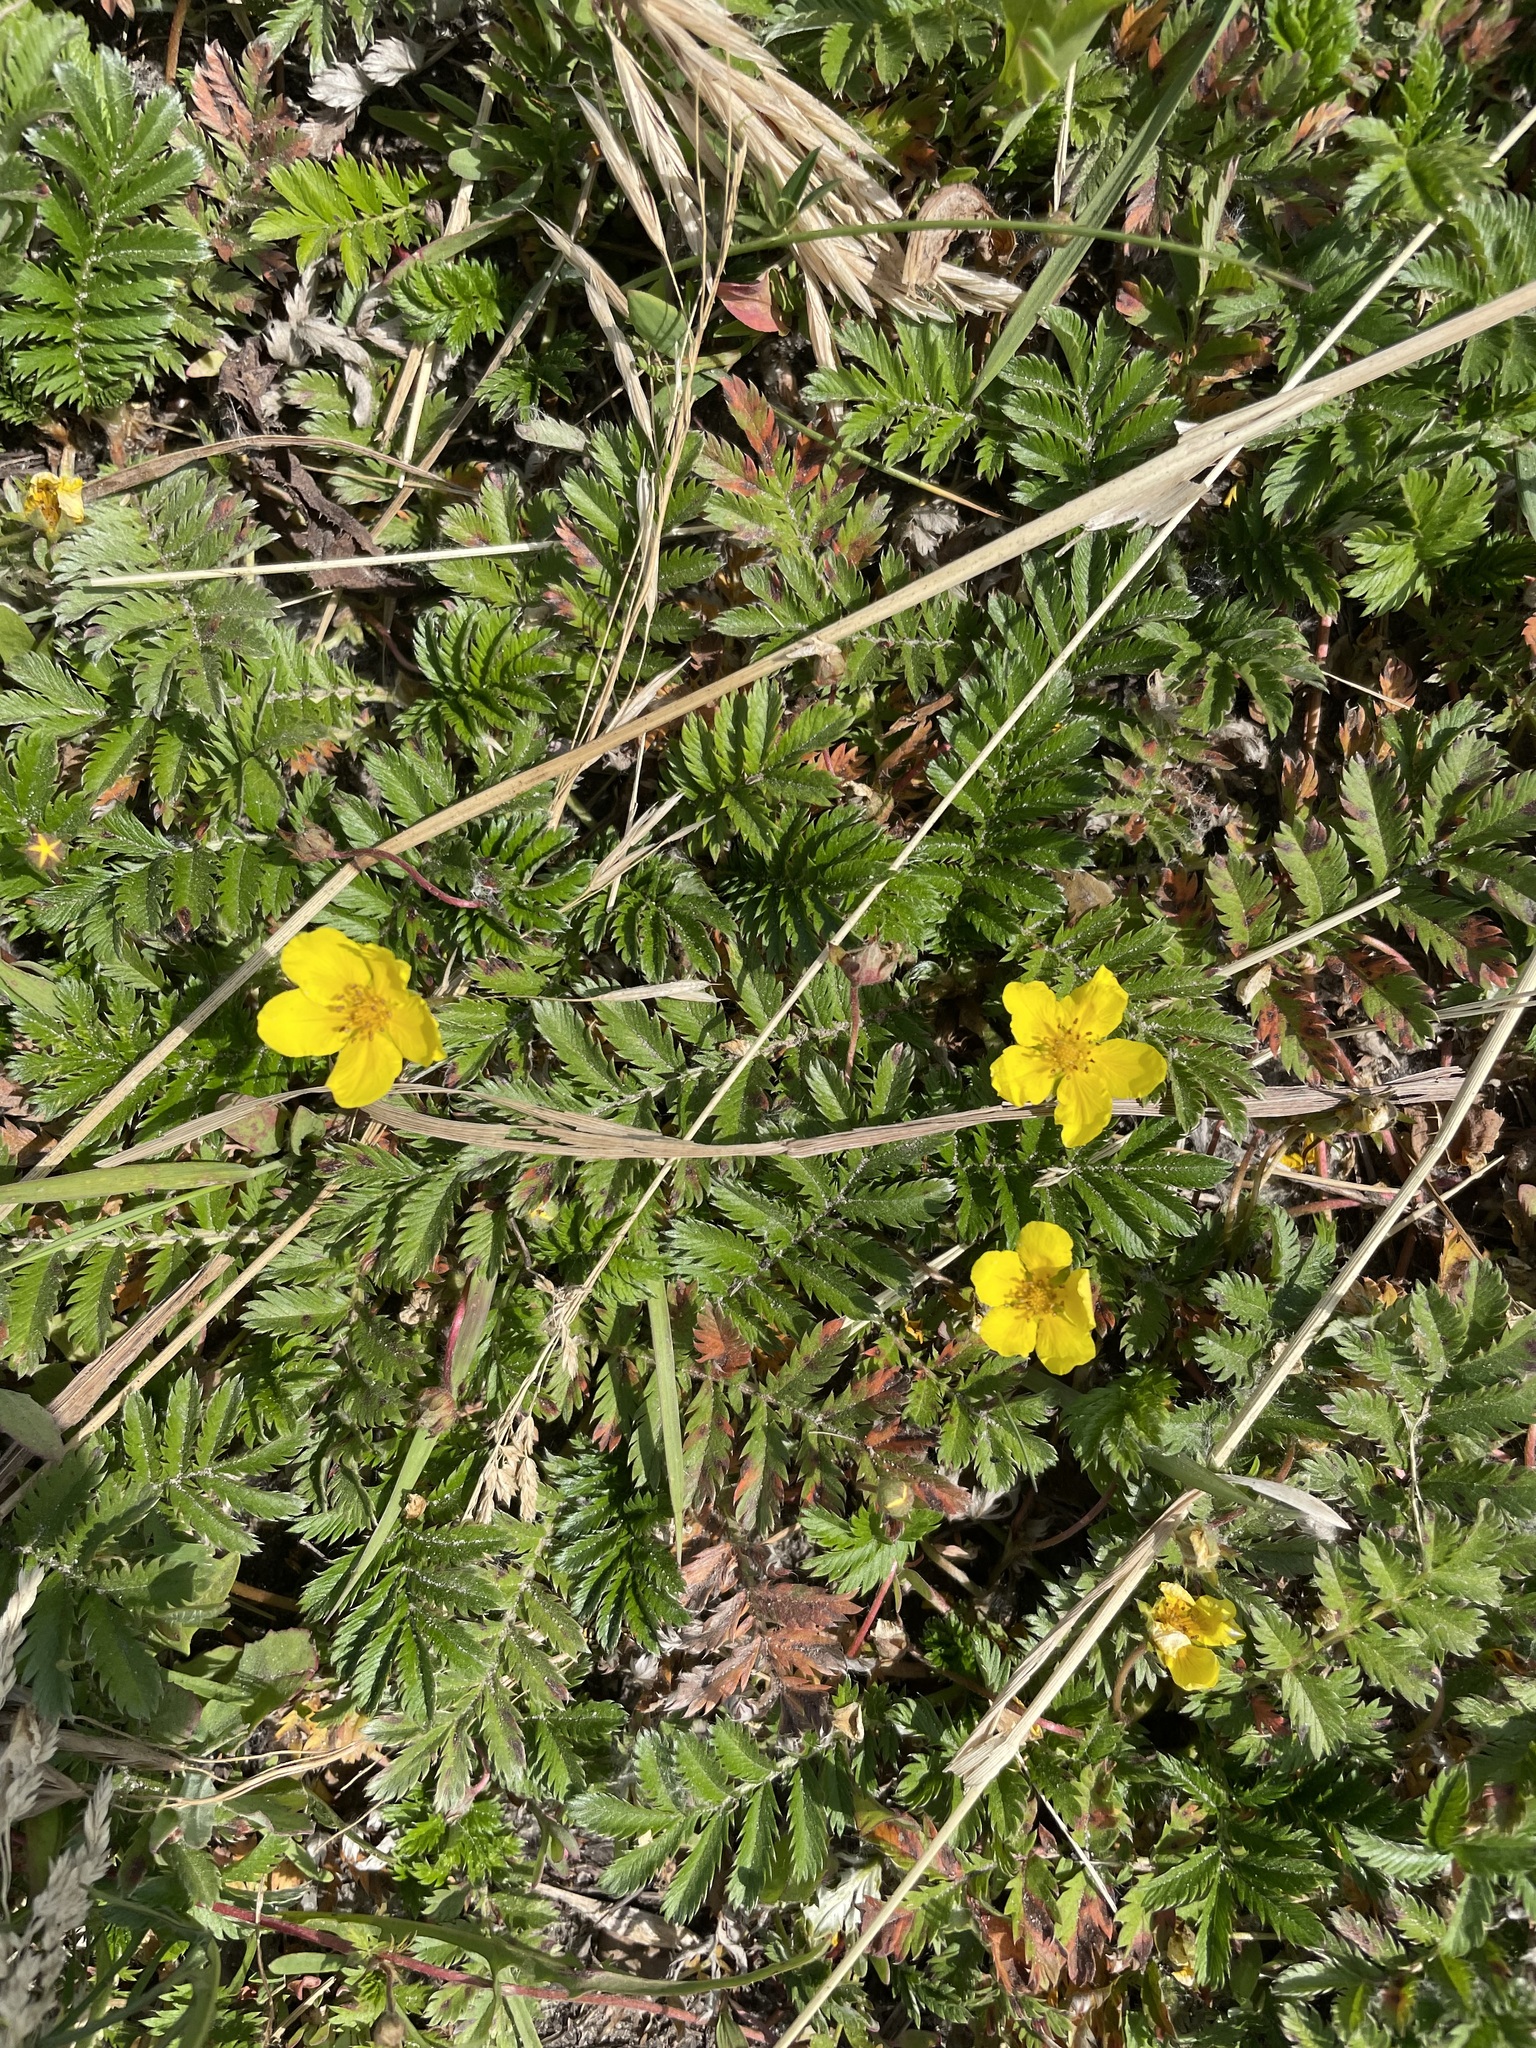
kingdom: Plantae
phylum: Tracheophyta
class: Magnoliopsida
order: Rosales
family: Rosaceae
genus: Argentina
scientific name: Argentina anserina
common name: Common silverweed
